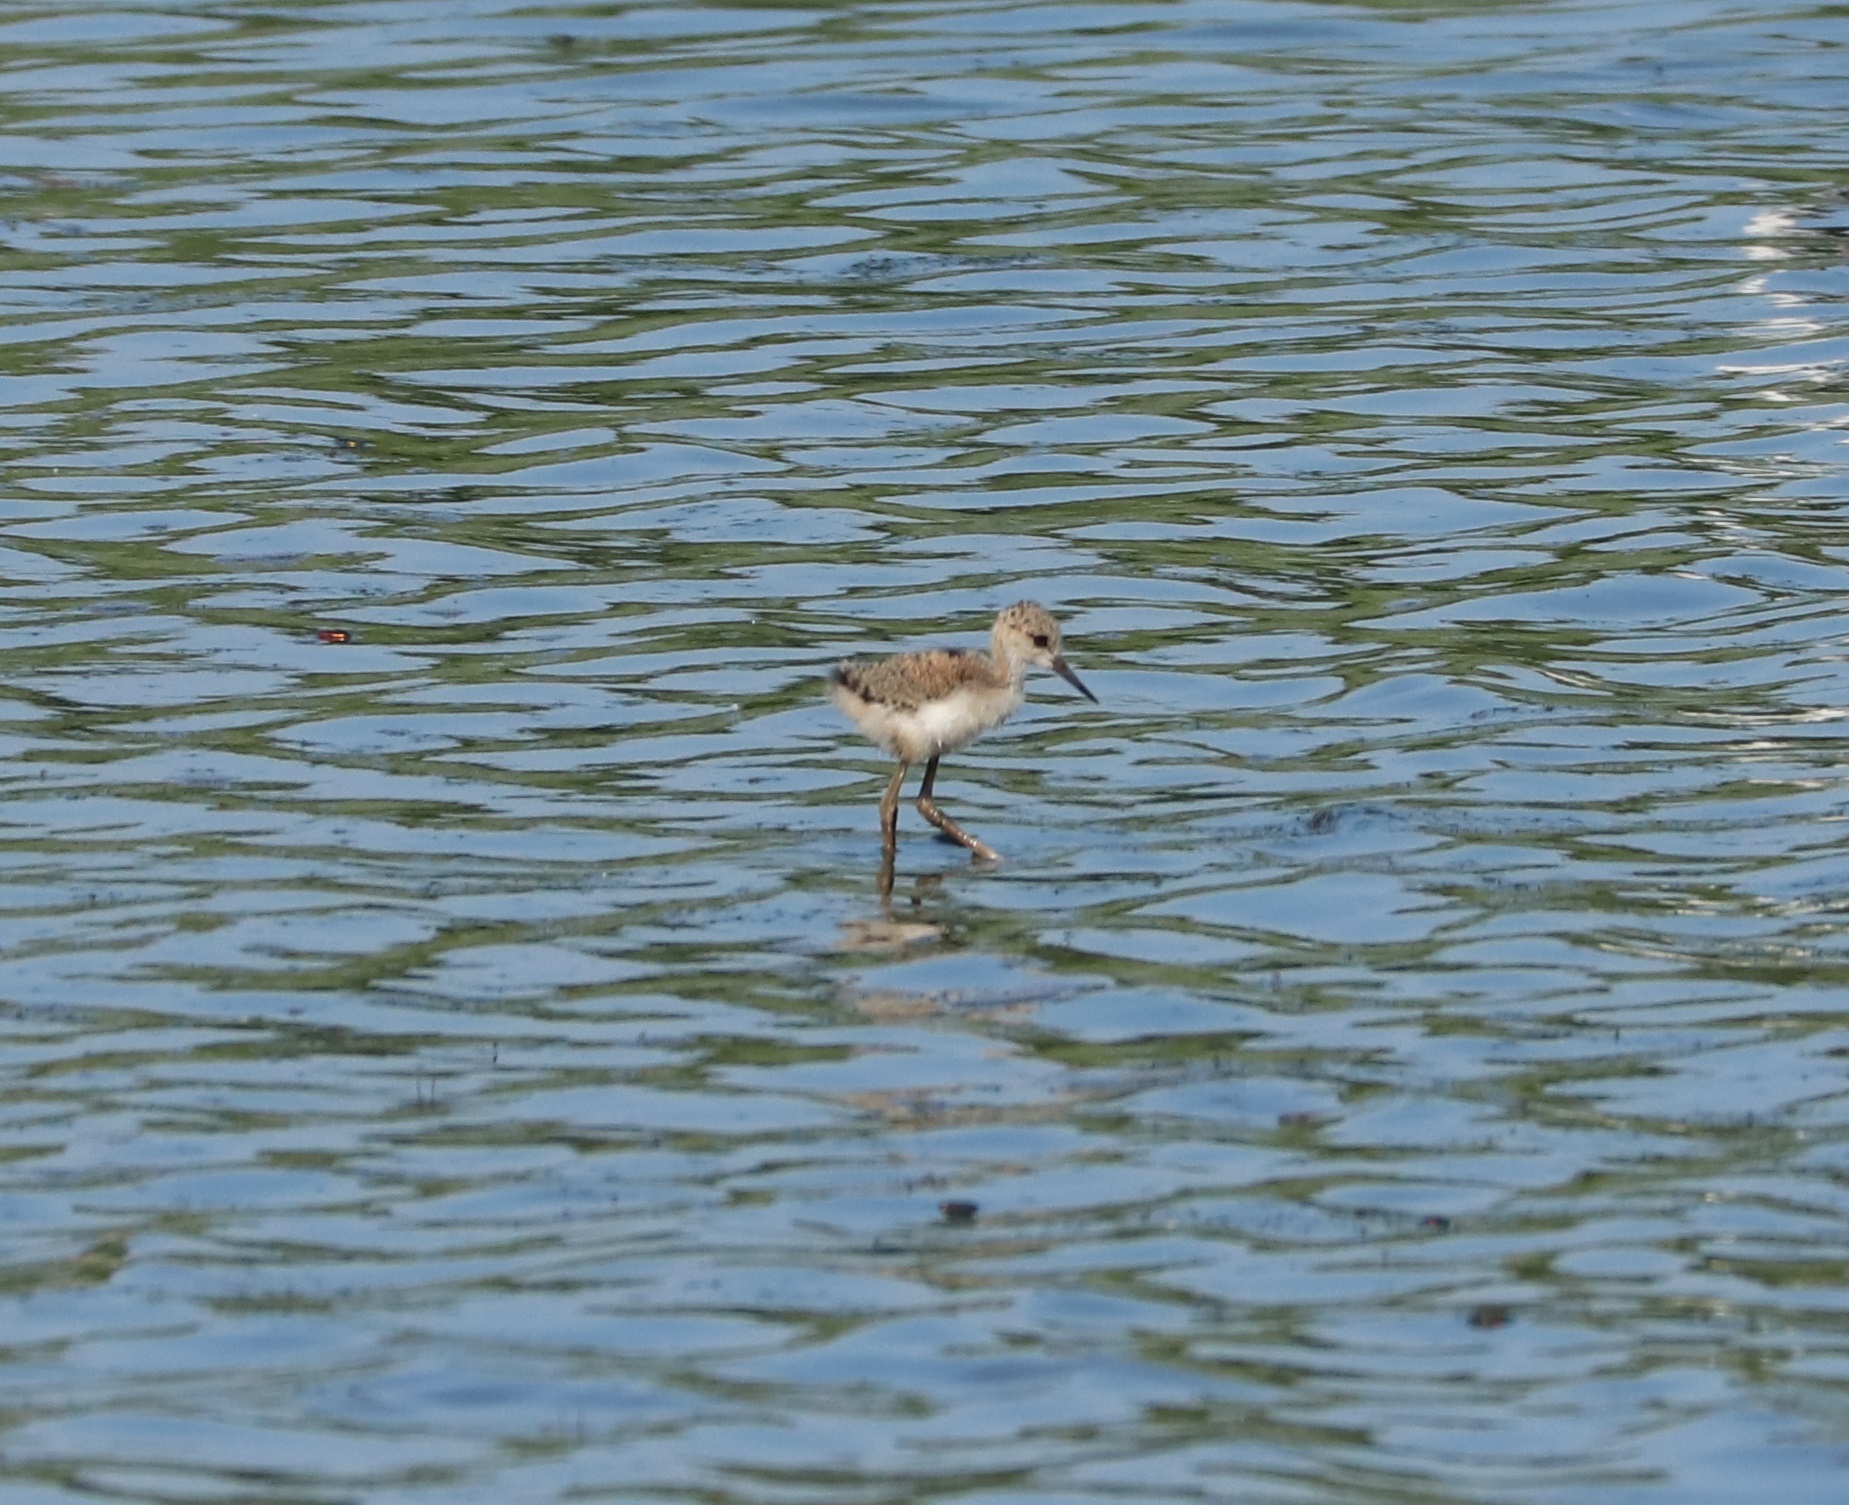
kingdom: Animalia
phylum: Chordata
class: Aves
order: Charadriiformes
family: Recurvirostridae
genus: Himantopus
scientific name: Himantopus himantopus
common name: Black-winged stilt
